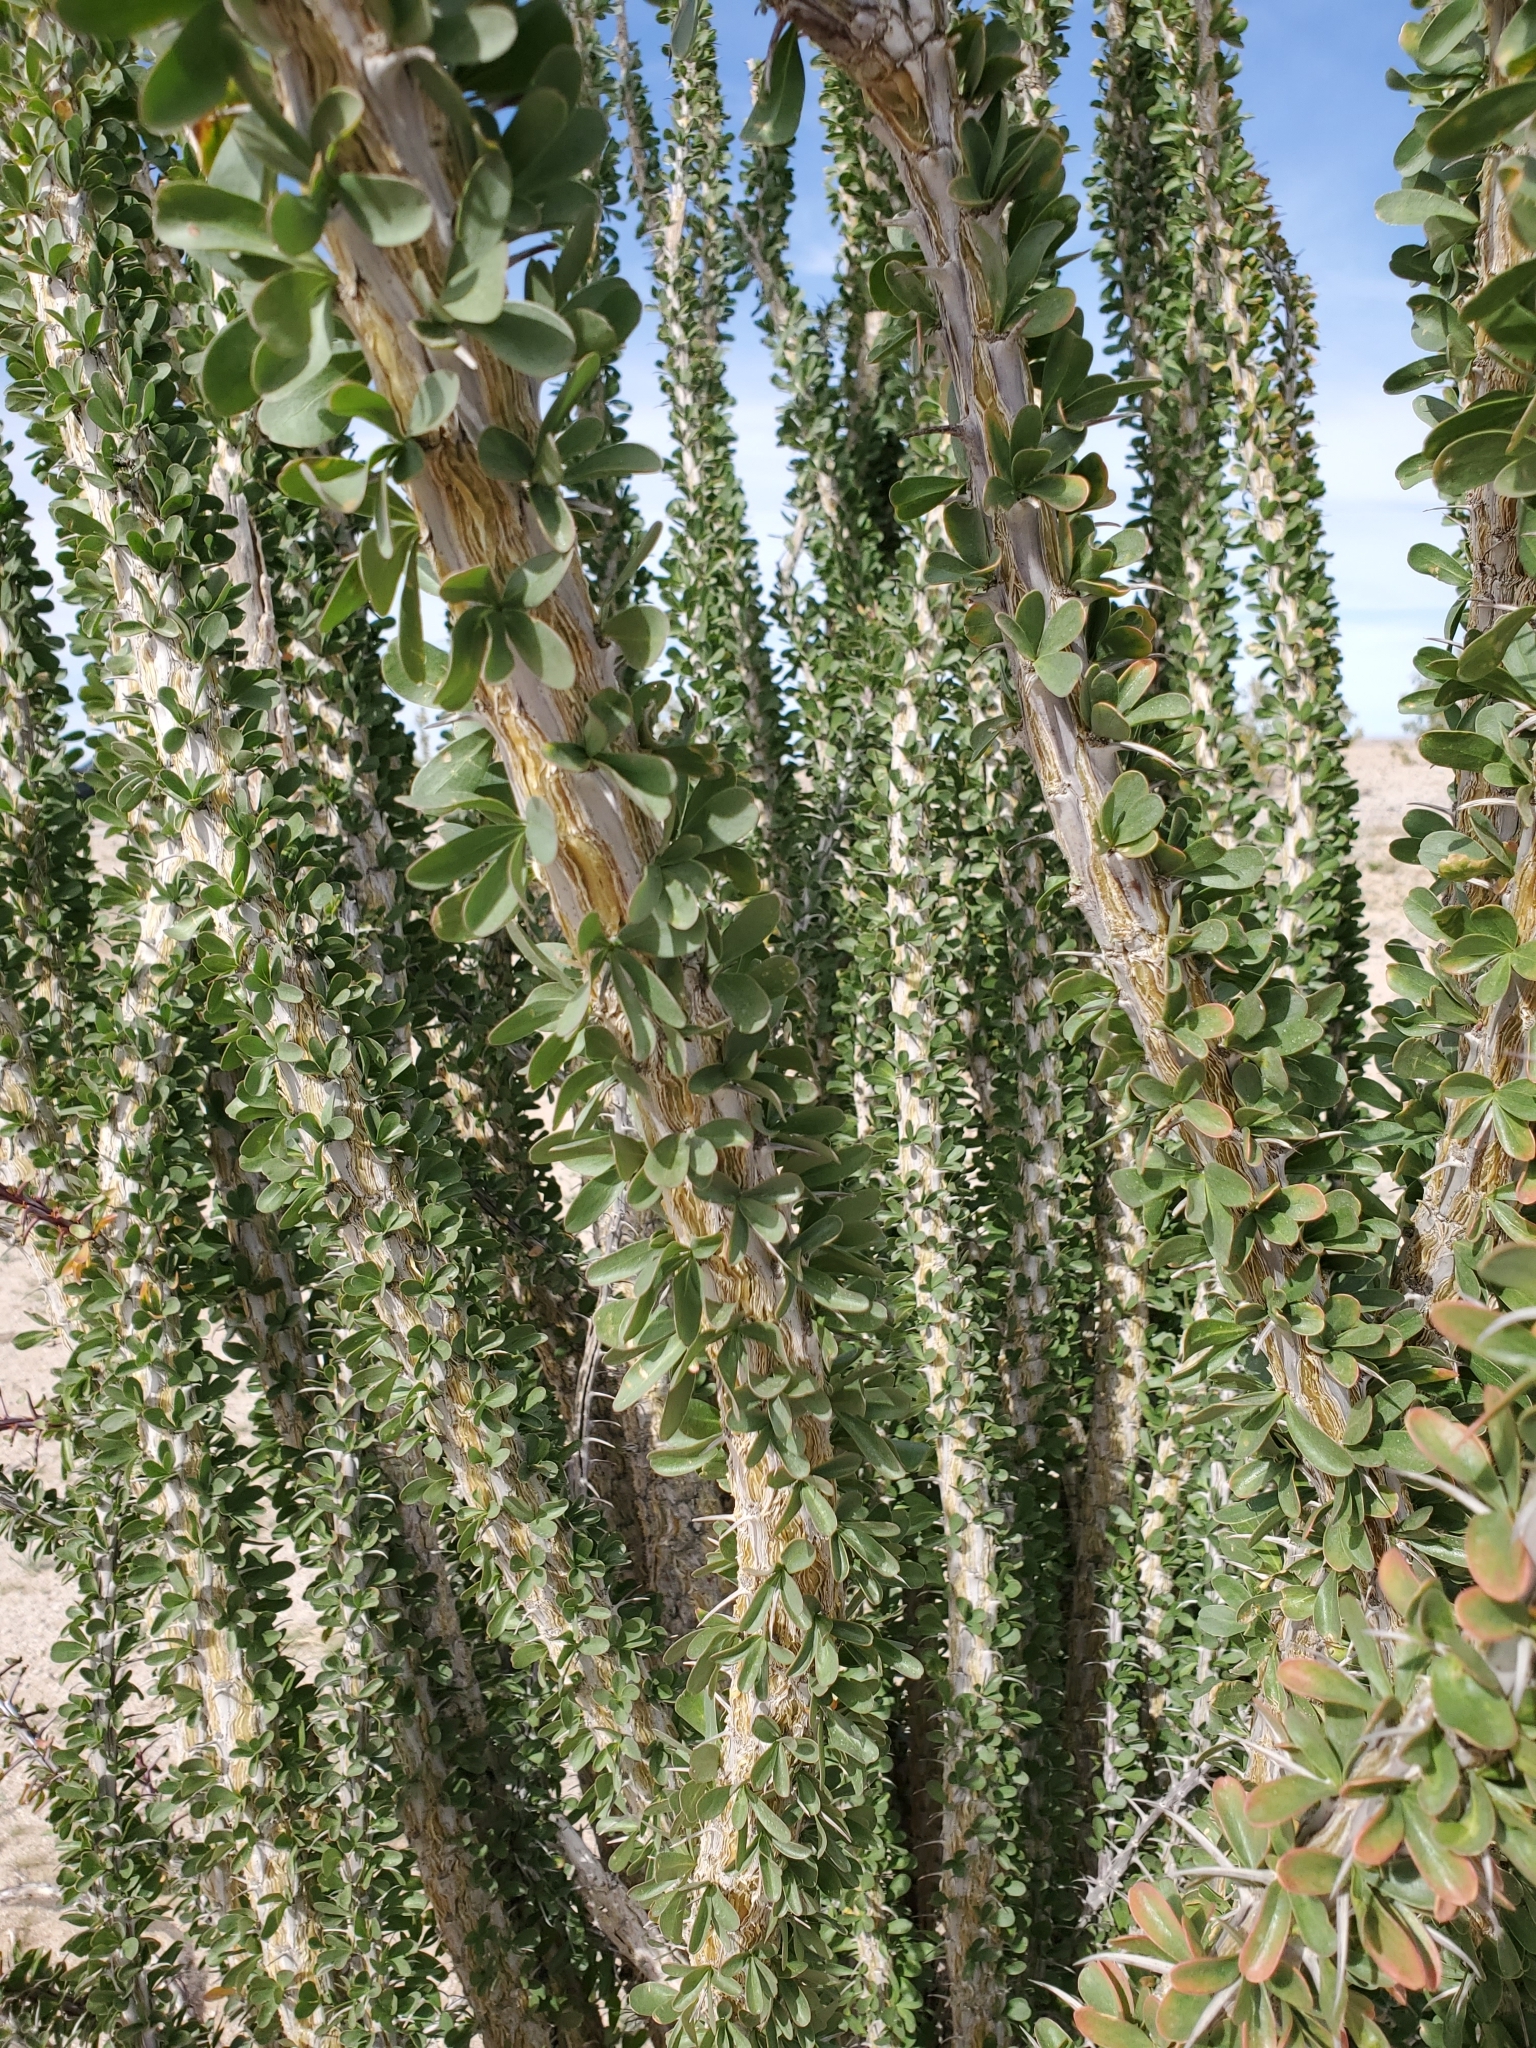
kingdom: Plantae
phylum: Tracheophyta
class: Magnoliopsida
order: Ericales
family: Fouquieriaceae
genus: Fouquieria
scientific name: Fouquieria splendens
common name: Vine-cactus
